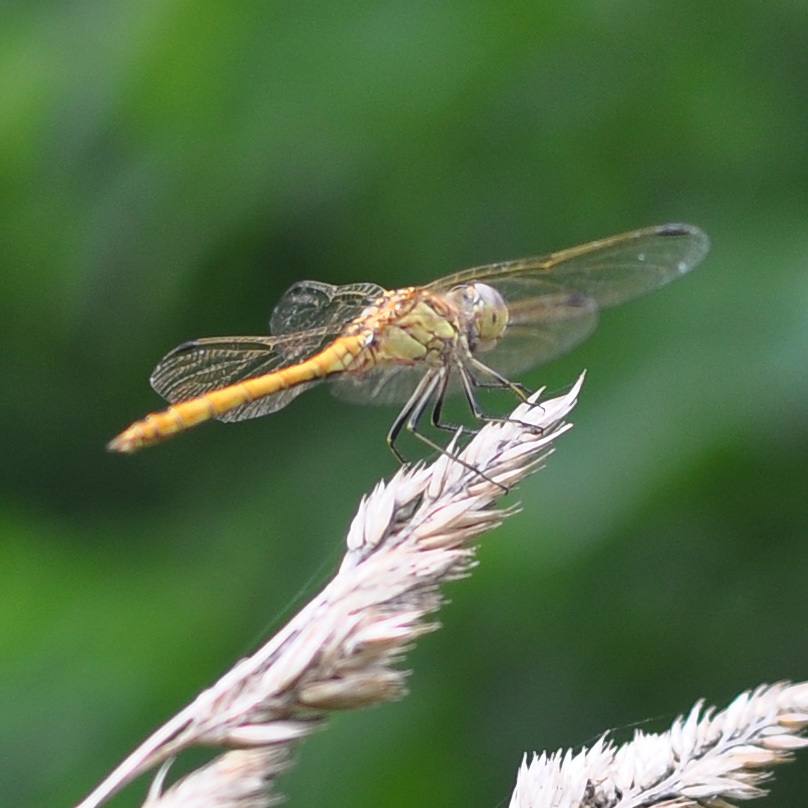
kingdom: Animalia
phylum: Arthropoda
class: Insecta
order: Odonata
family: Libellulidae
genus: Sympetrum
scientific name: Sympetrum vulgatum
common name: Vagrant darter
